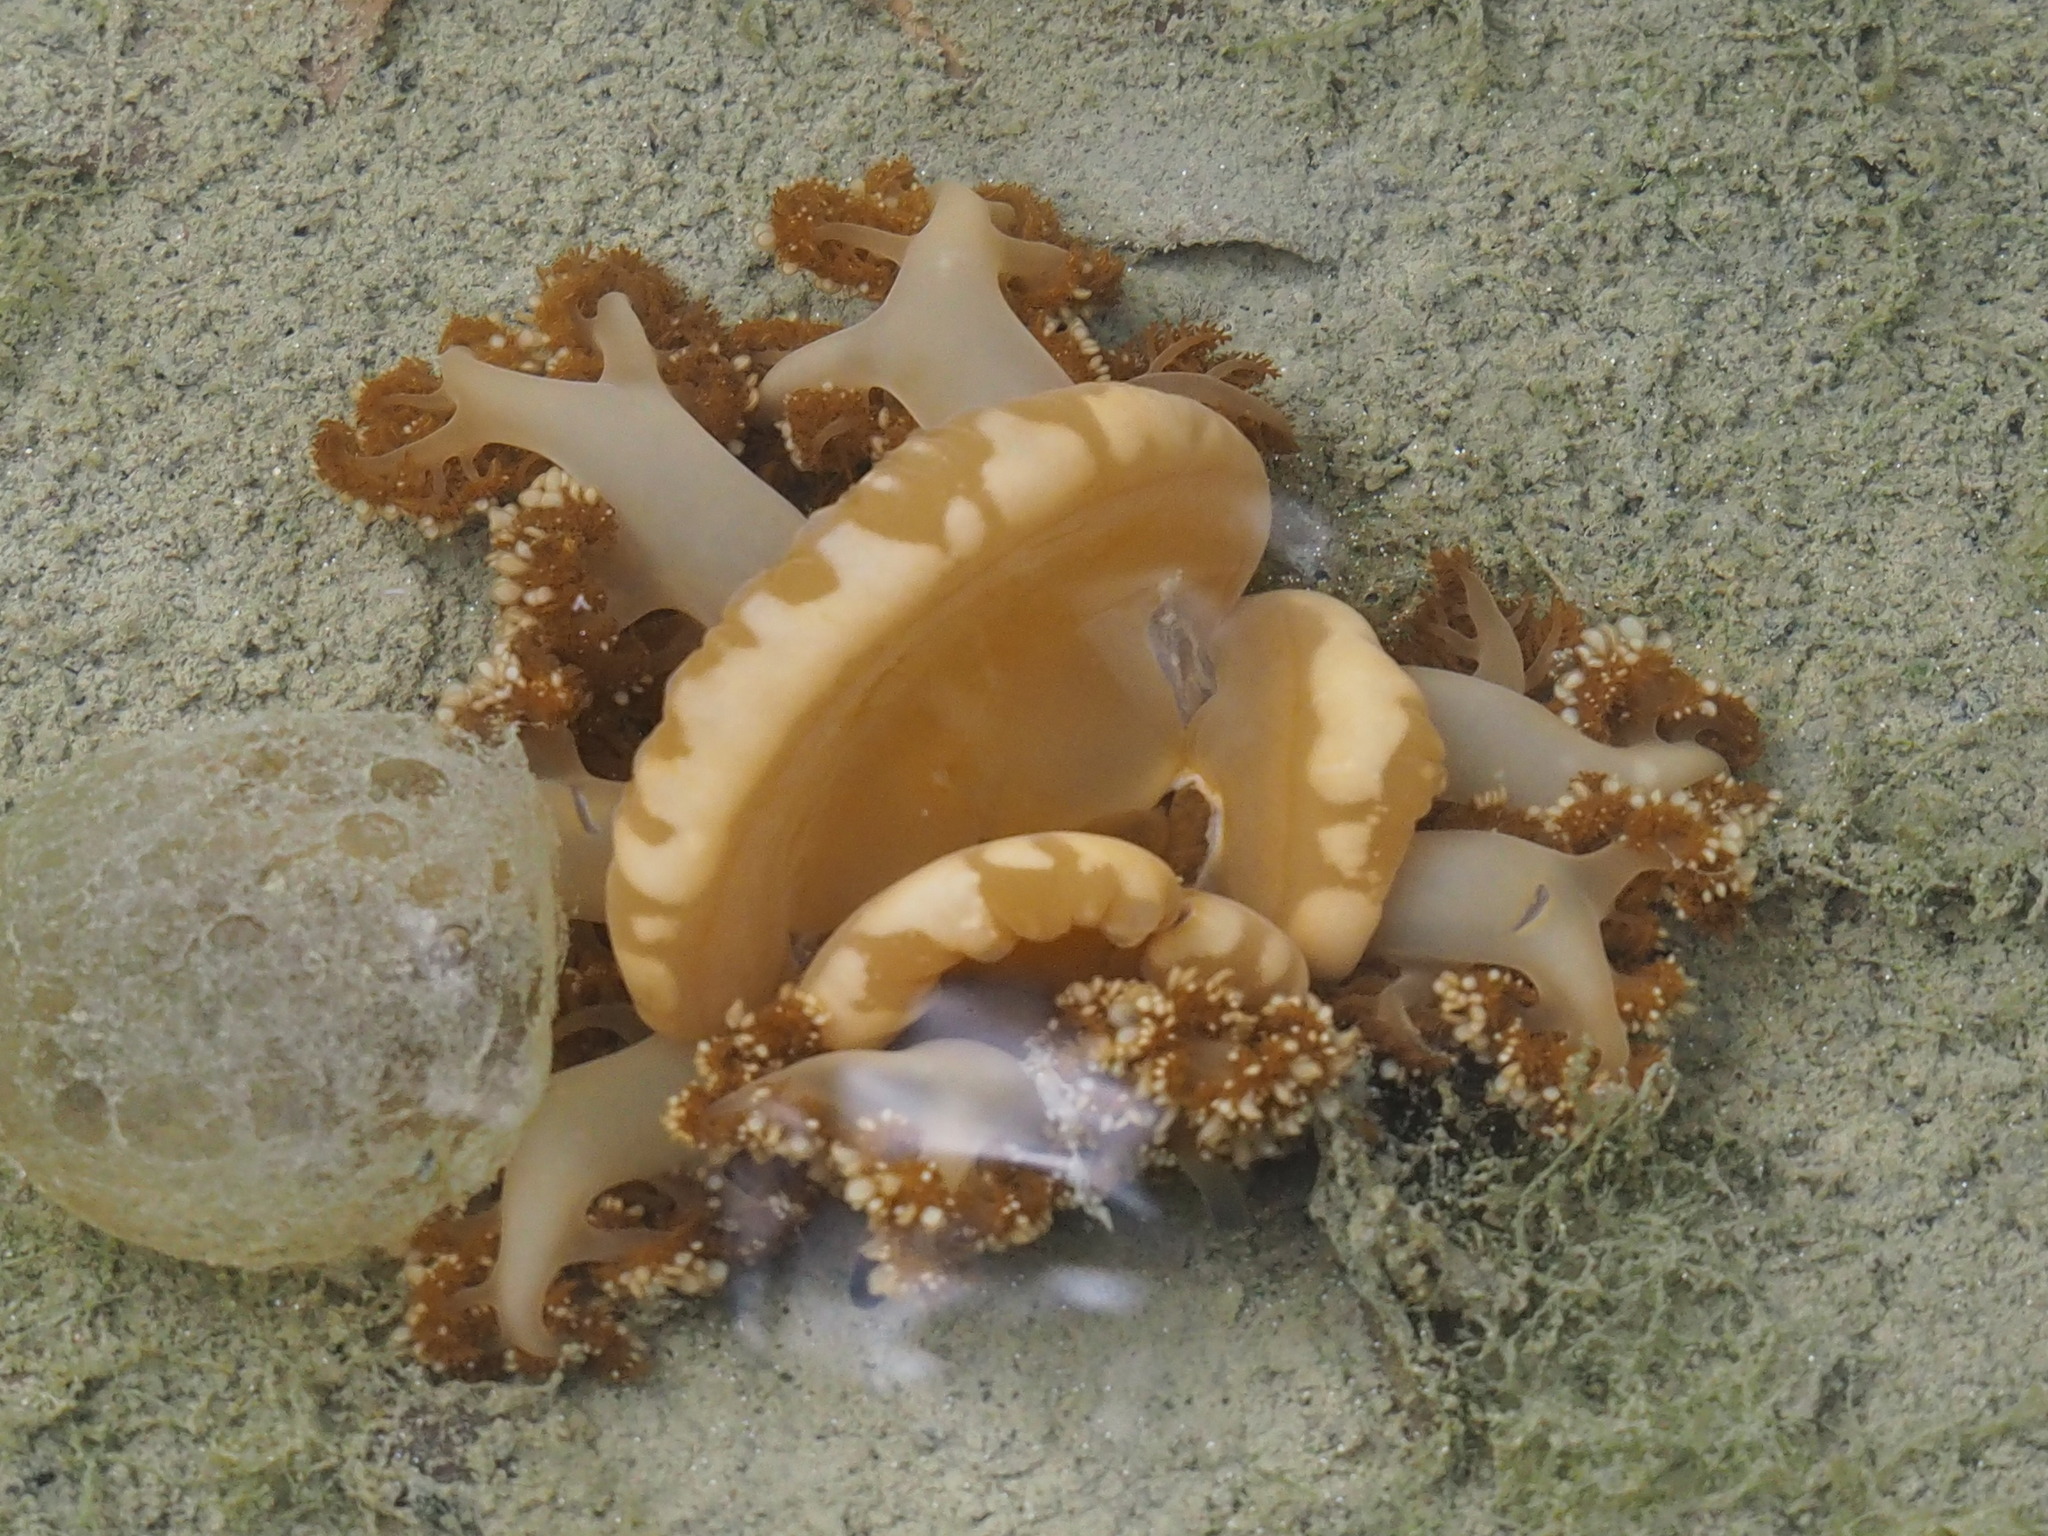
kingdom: Animalia
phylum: Cnidaria
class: Scyphozoa
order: Rhizostomeae
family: Cassiopeidae
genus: Cassiopea
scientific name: Cassiopea andromeda
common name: Upside-down jellyfish
